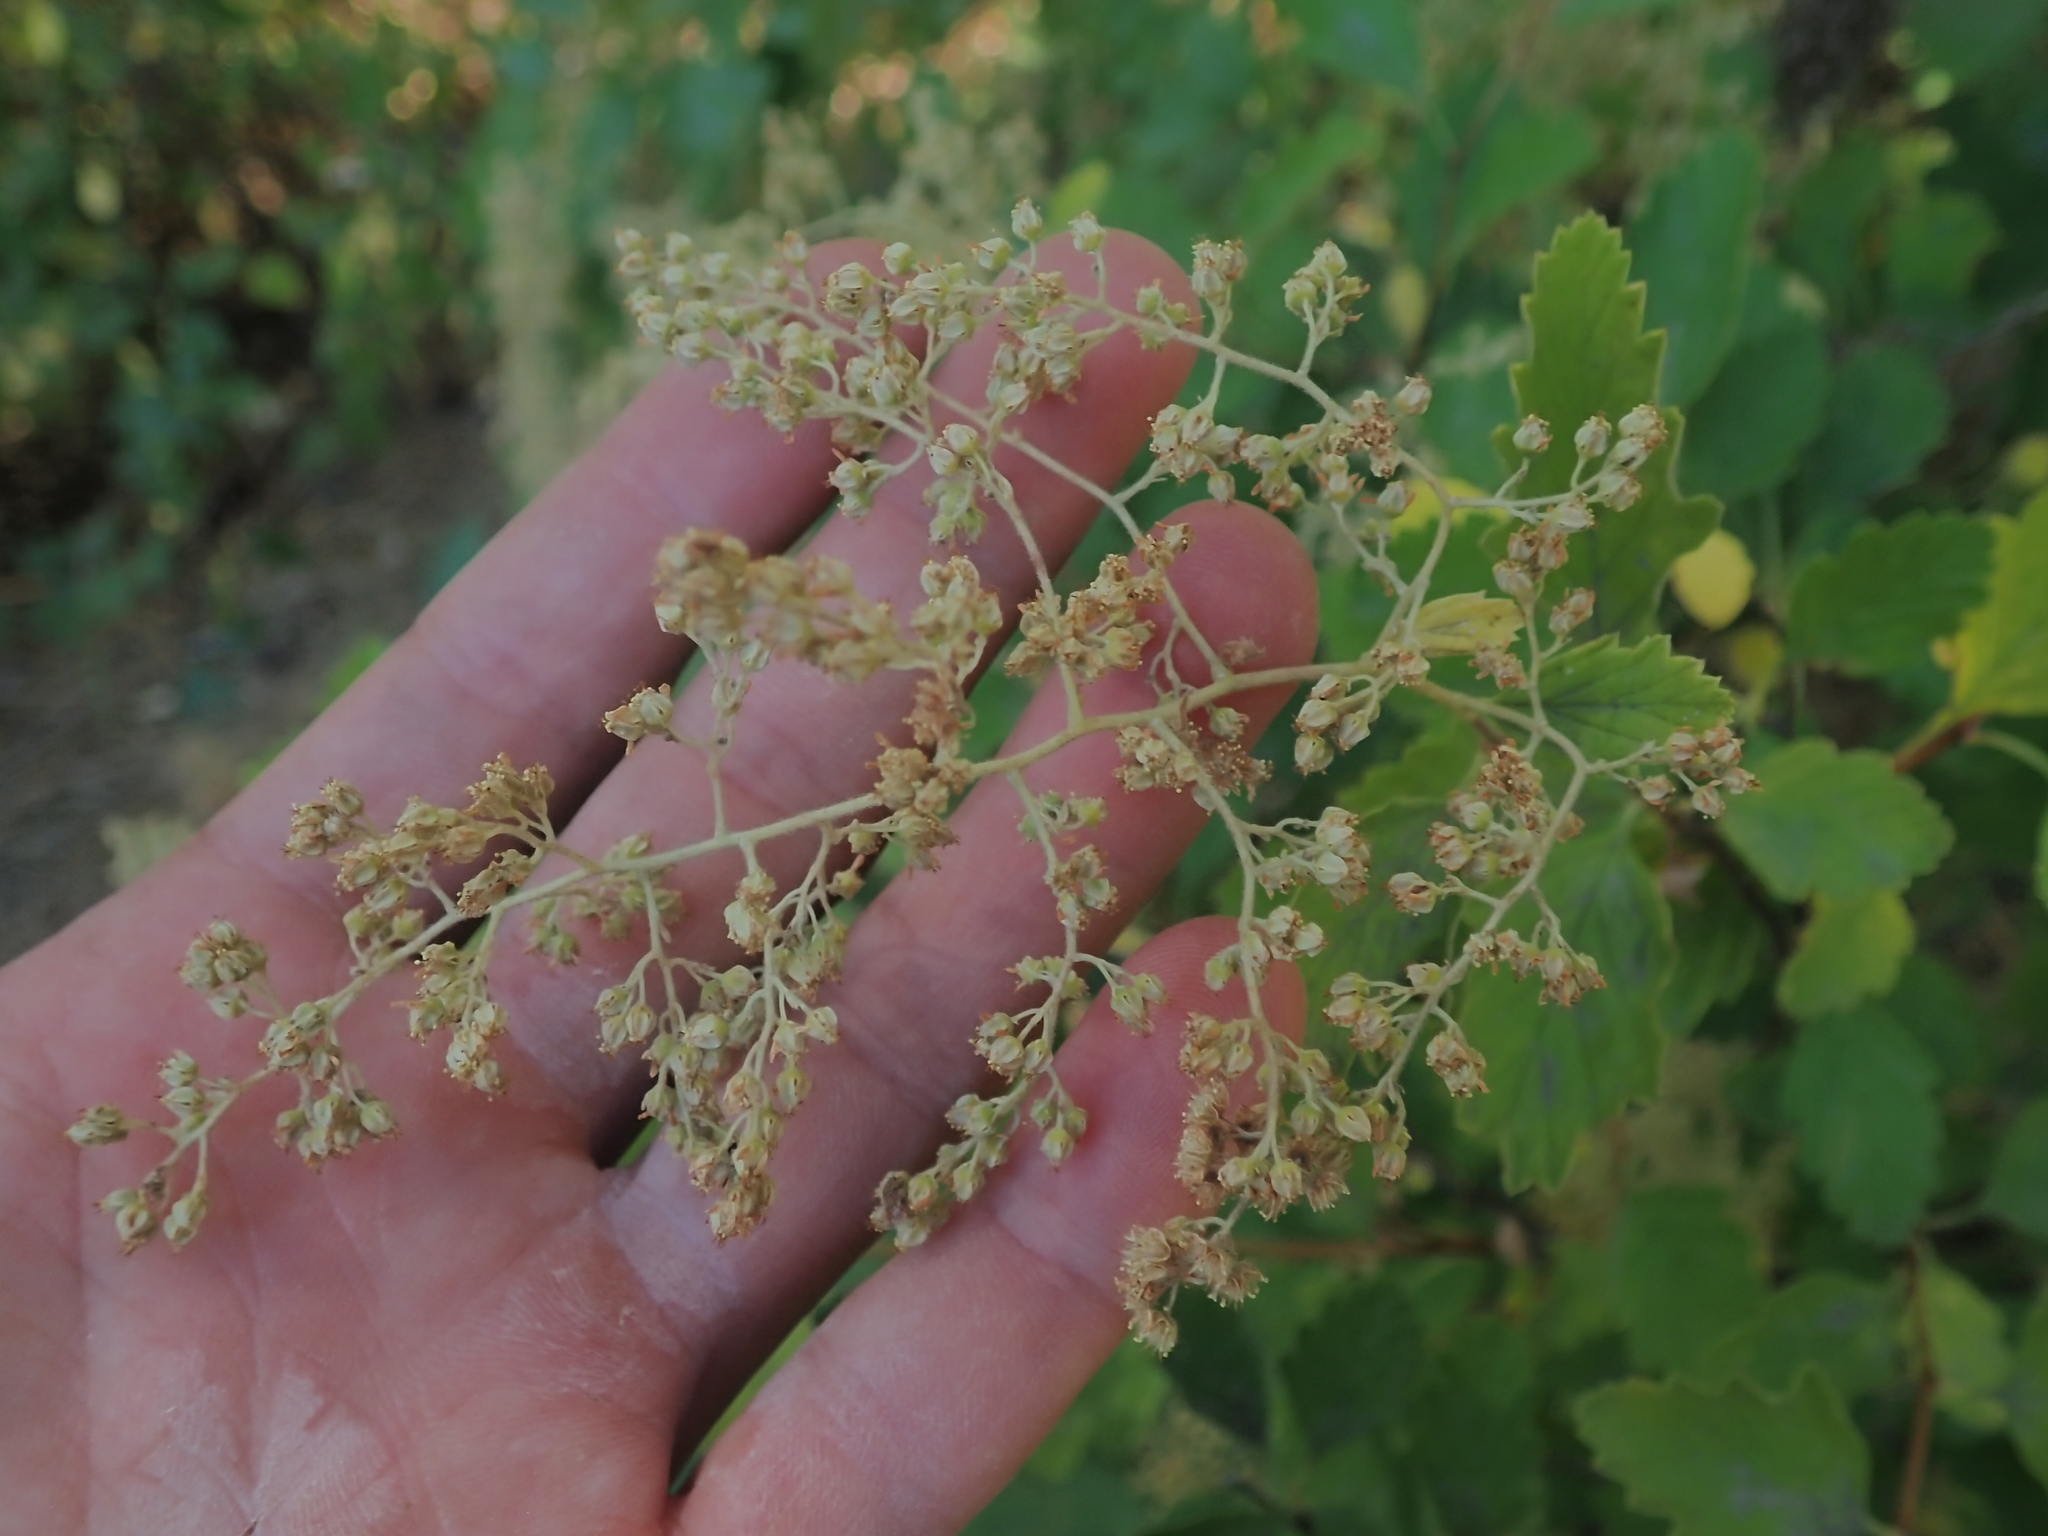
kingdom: Plantae
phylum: Tracheophyta
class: Magnoliopsida
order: Rosales
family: Rosaceae
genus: Holodiscus
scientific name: Holodiscus discolor
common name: Oceanspray
